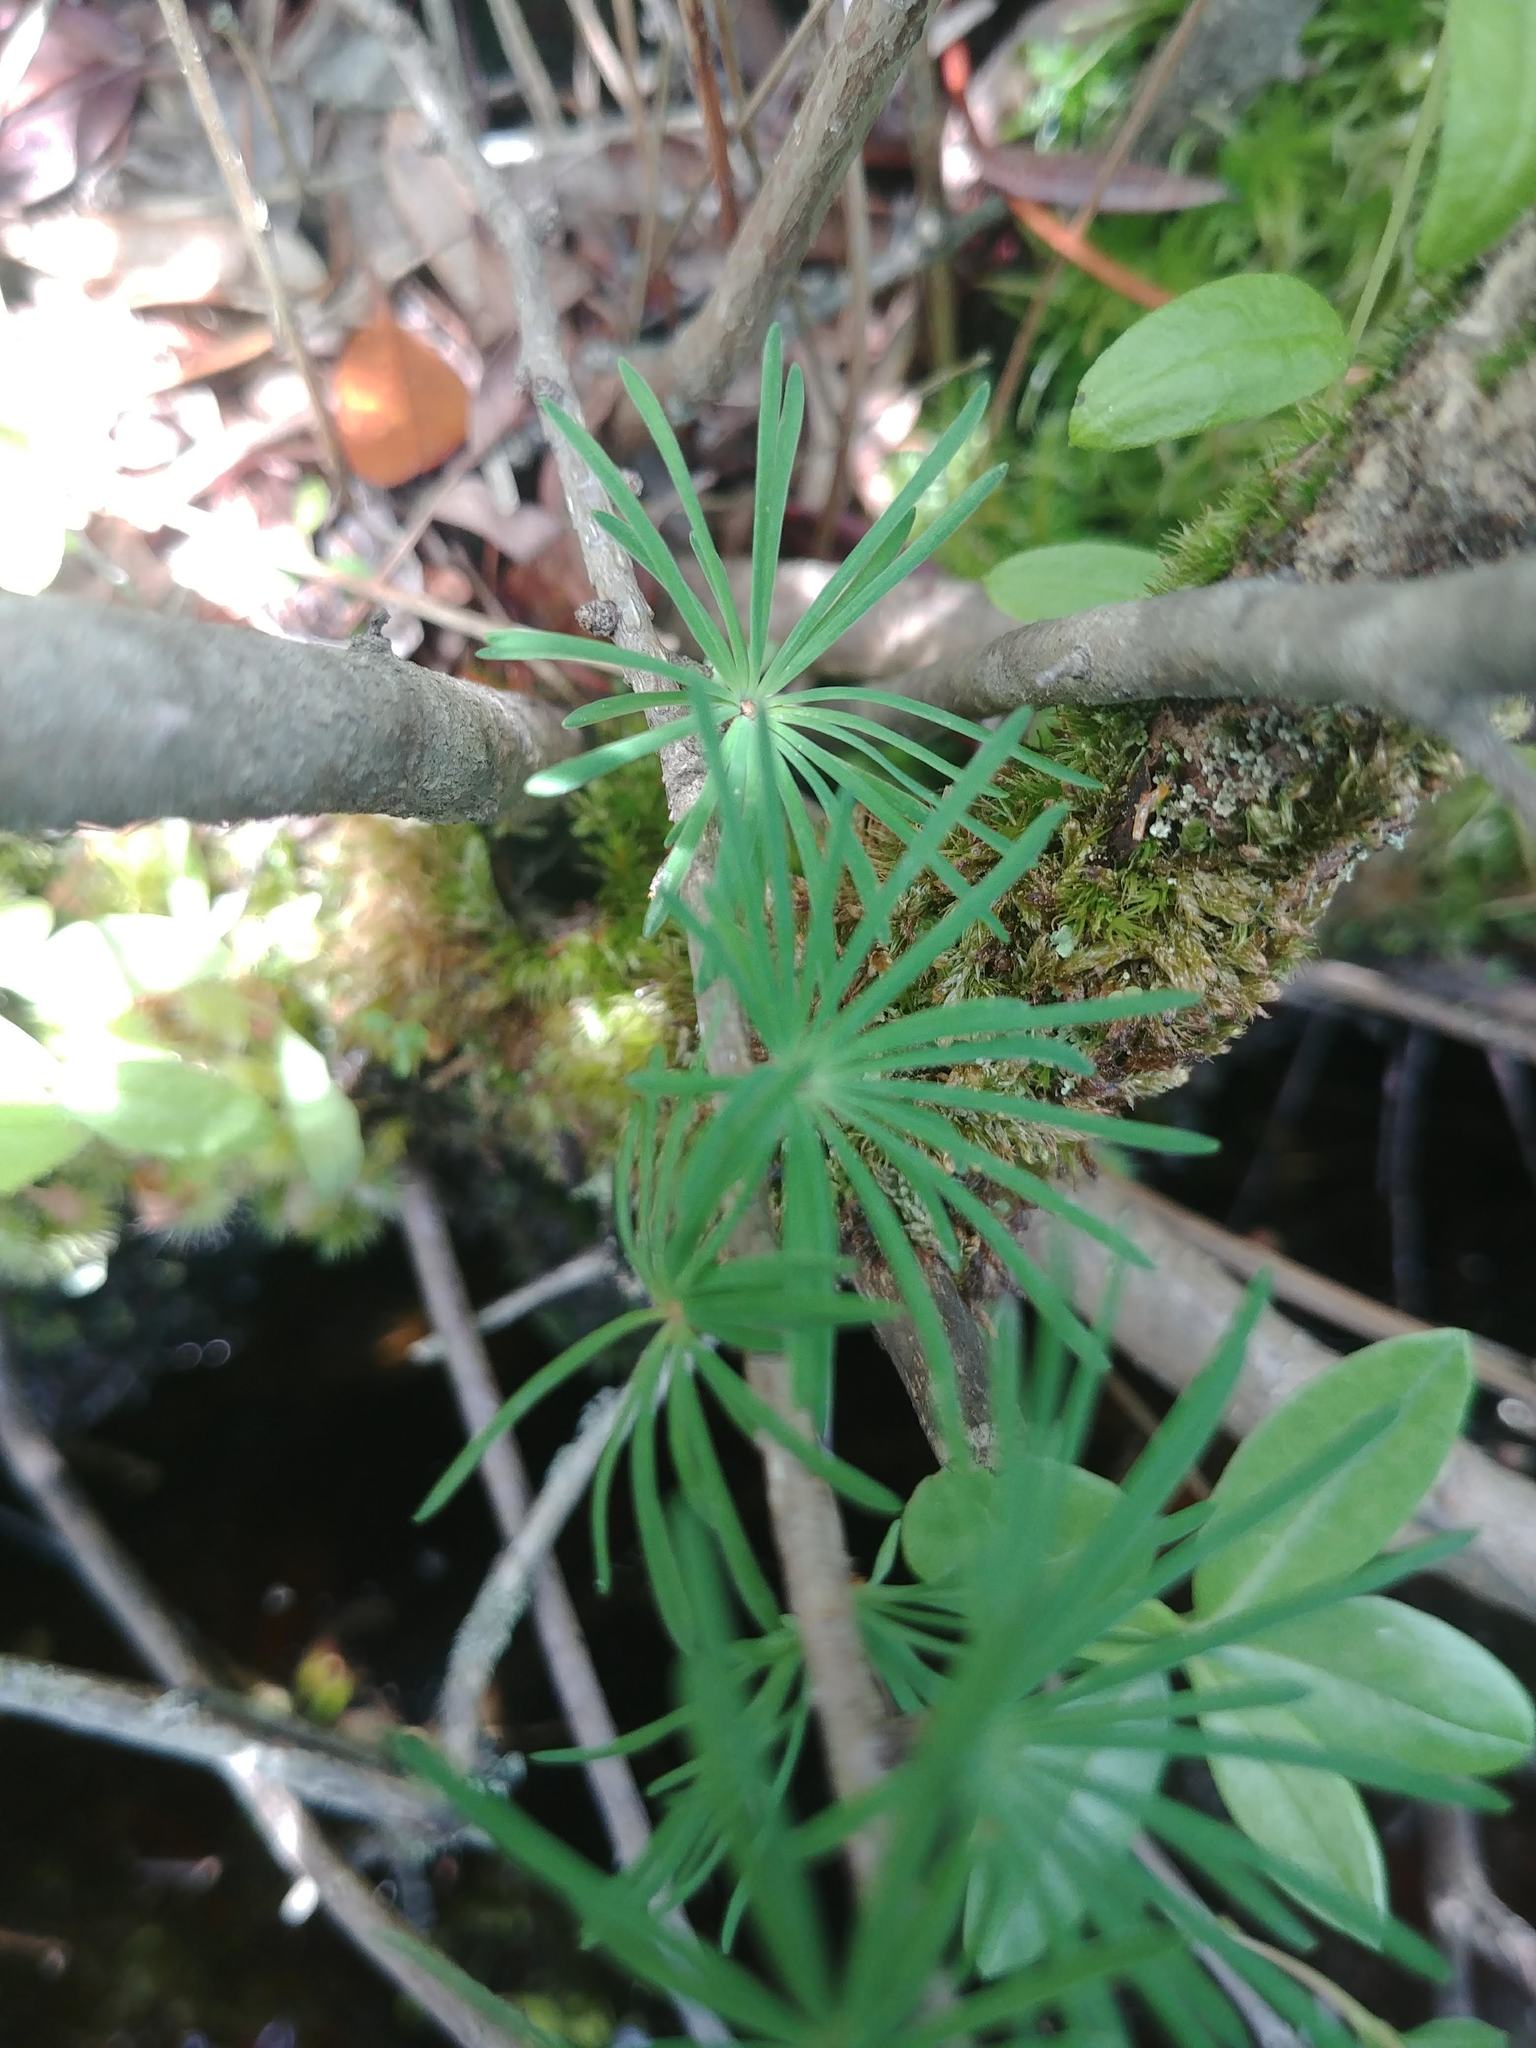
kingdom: Plantae
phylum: Tracheophyta
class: Pinopsida
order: Pinales
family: Pinaceae
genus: Larix
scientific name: Larix laricina
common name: American larch
